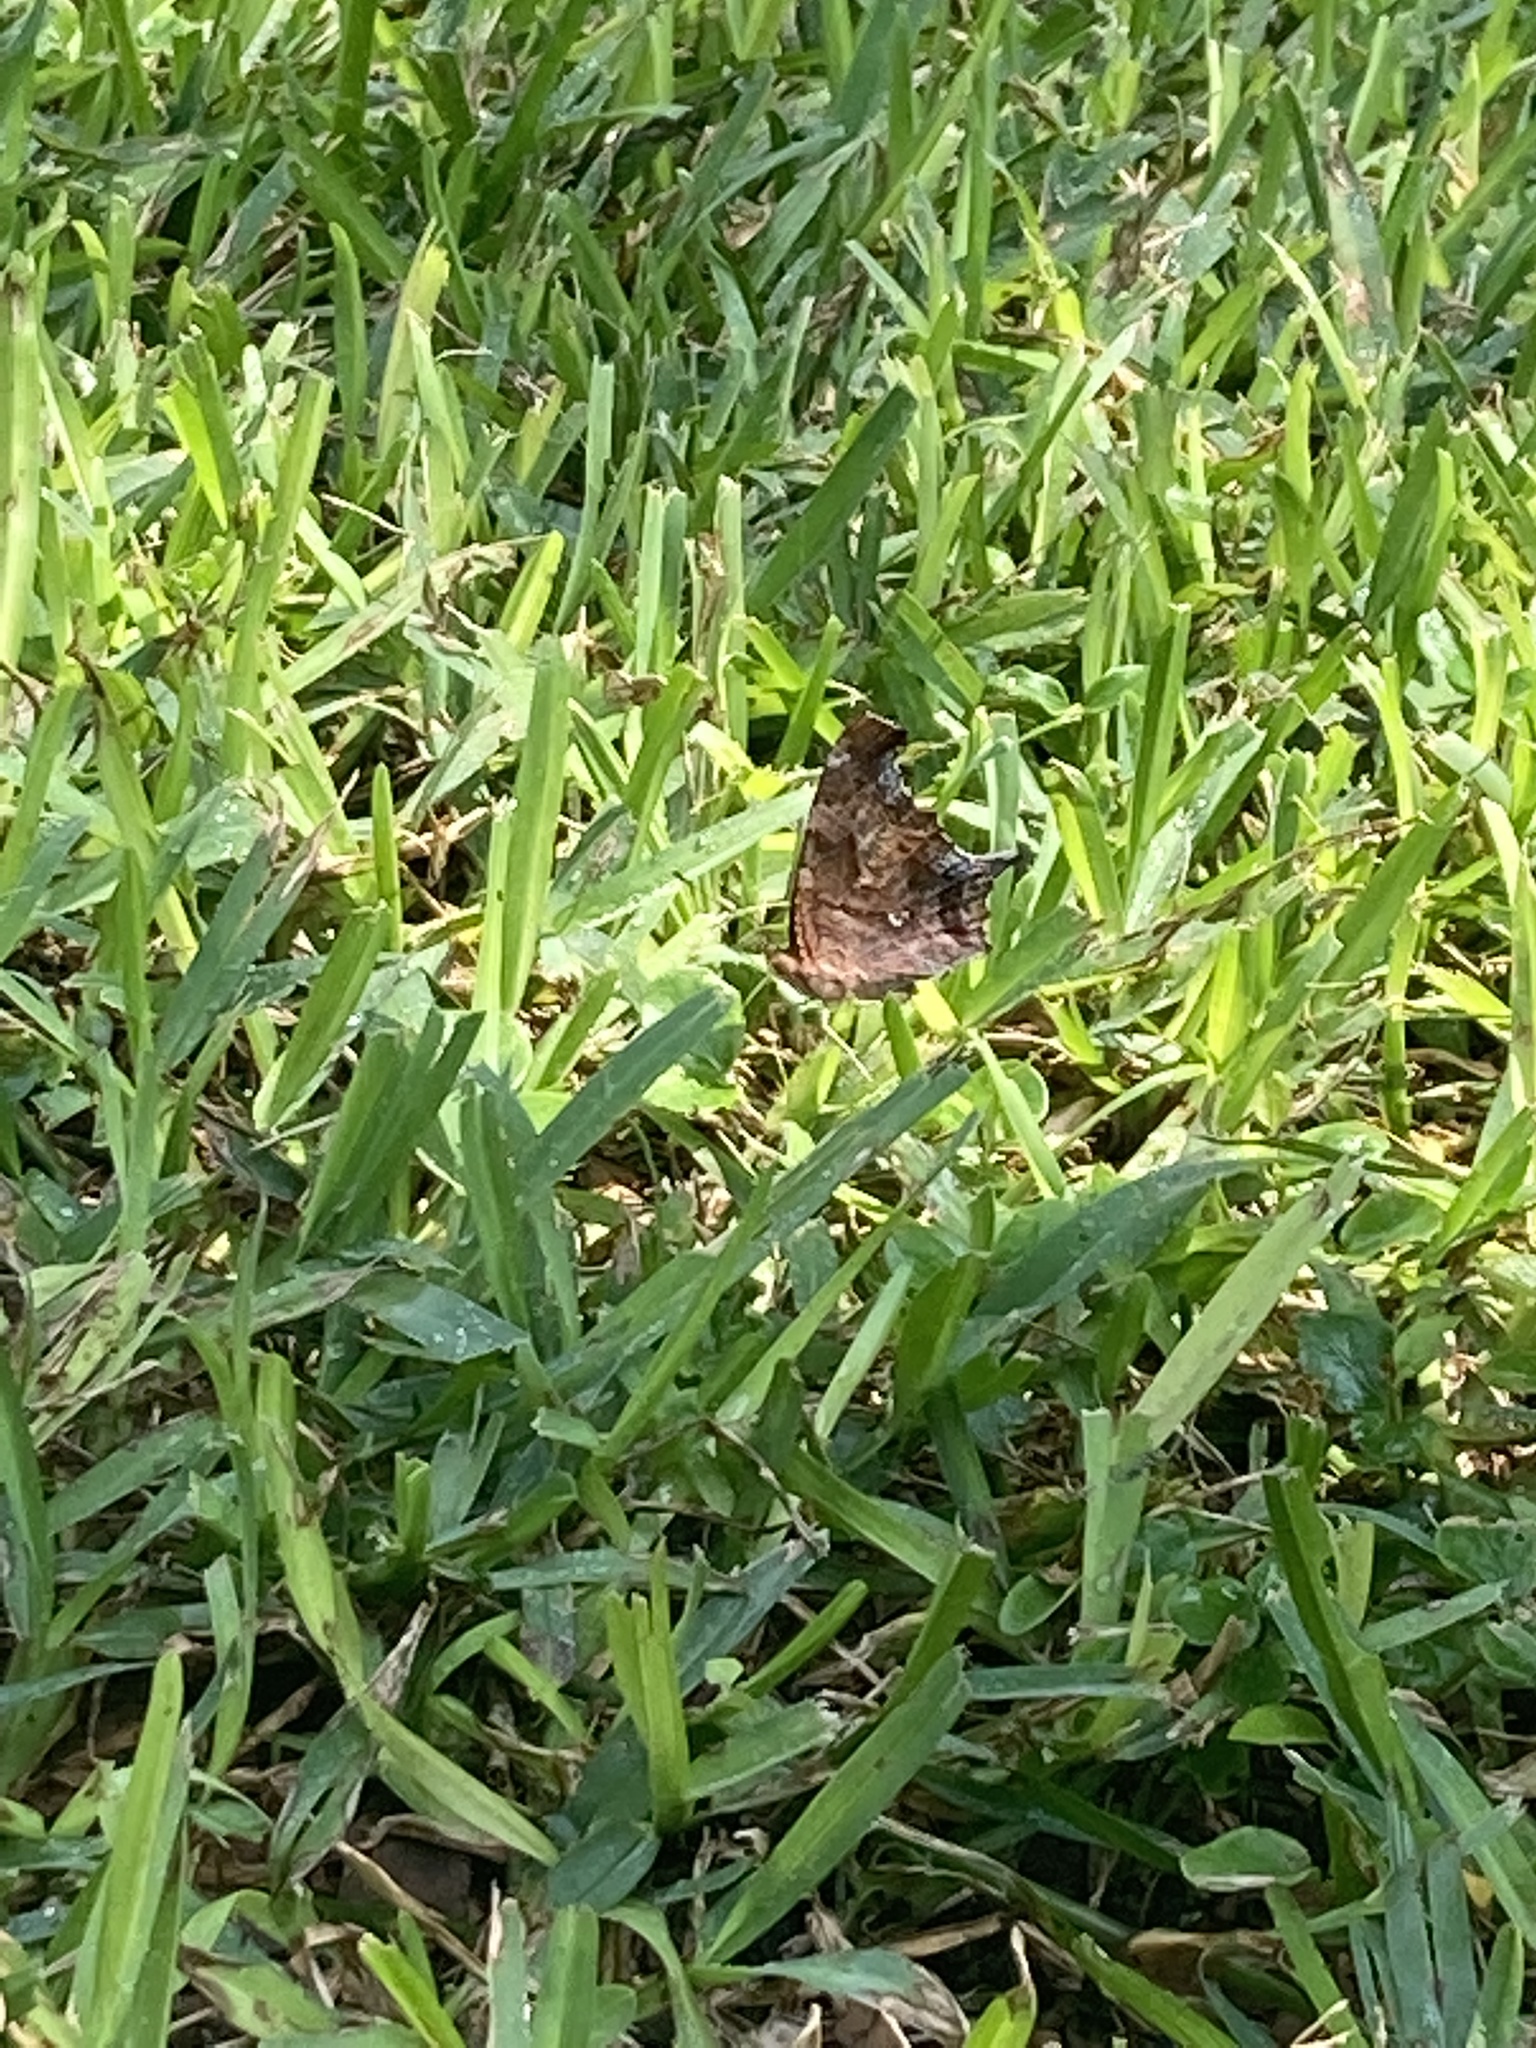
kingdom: Animalia
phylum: Arthropoda
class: Insecta
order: Lepidoptera
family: Nymphalidae
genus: Polygonia
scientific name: Polygonia interrogationis
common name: Question mark
